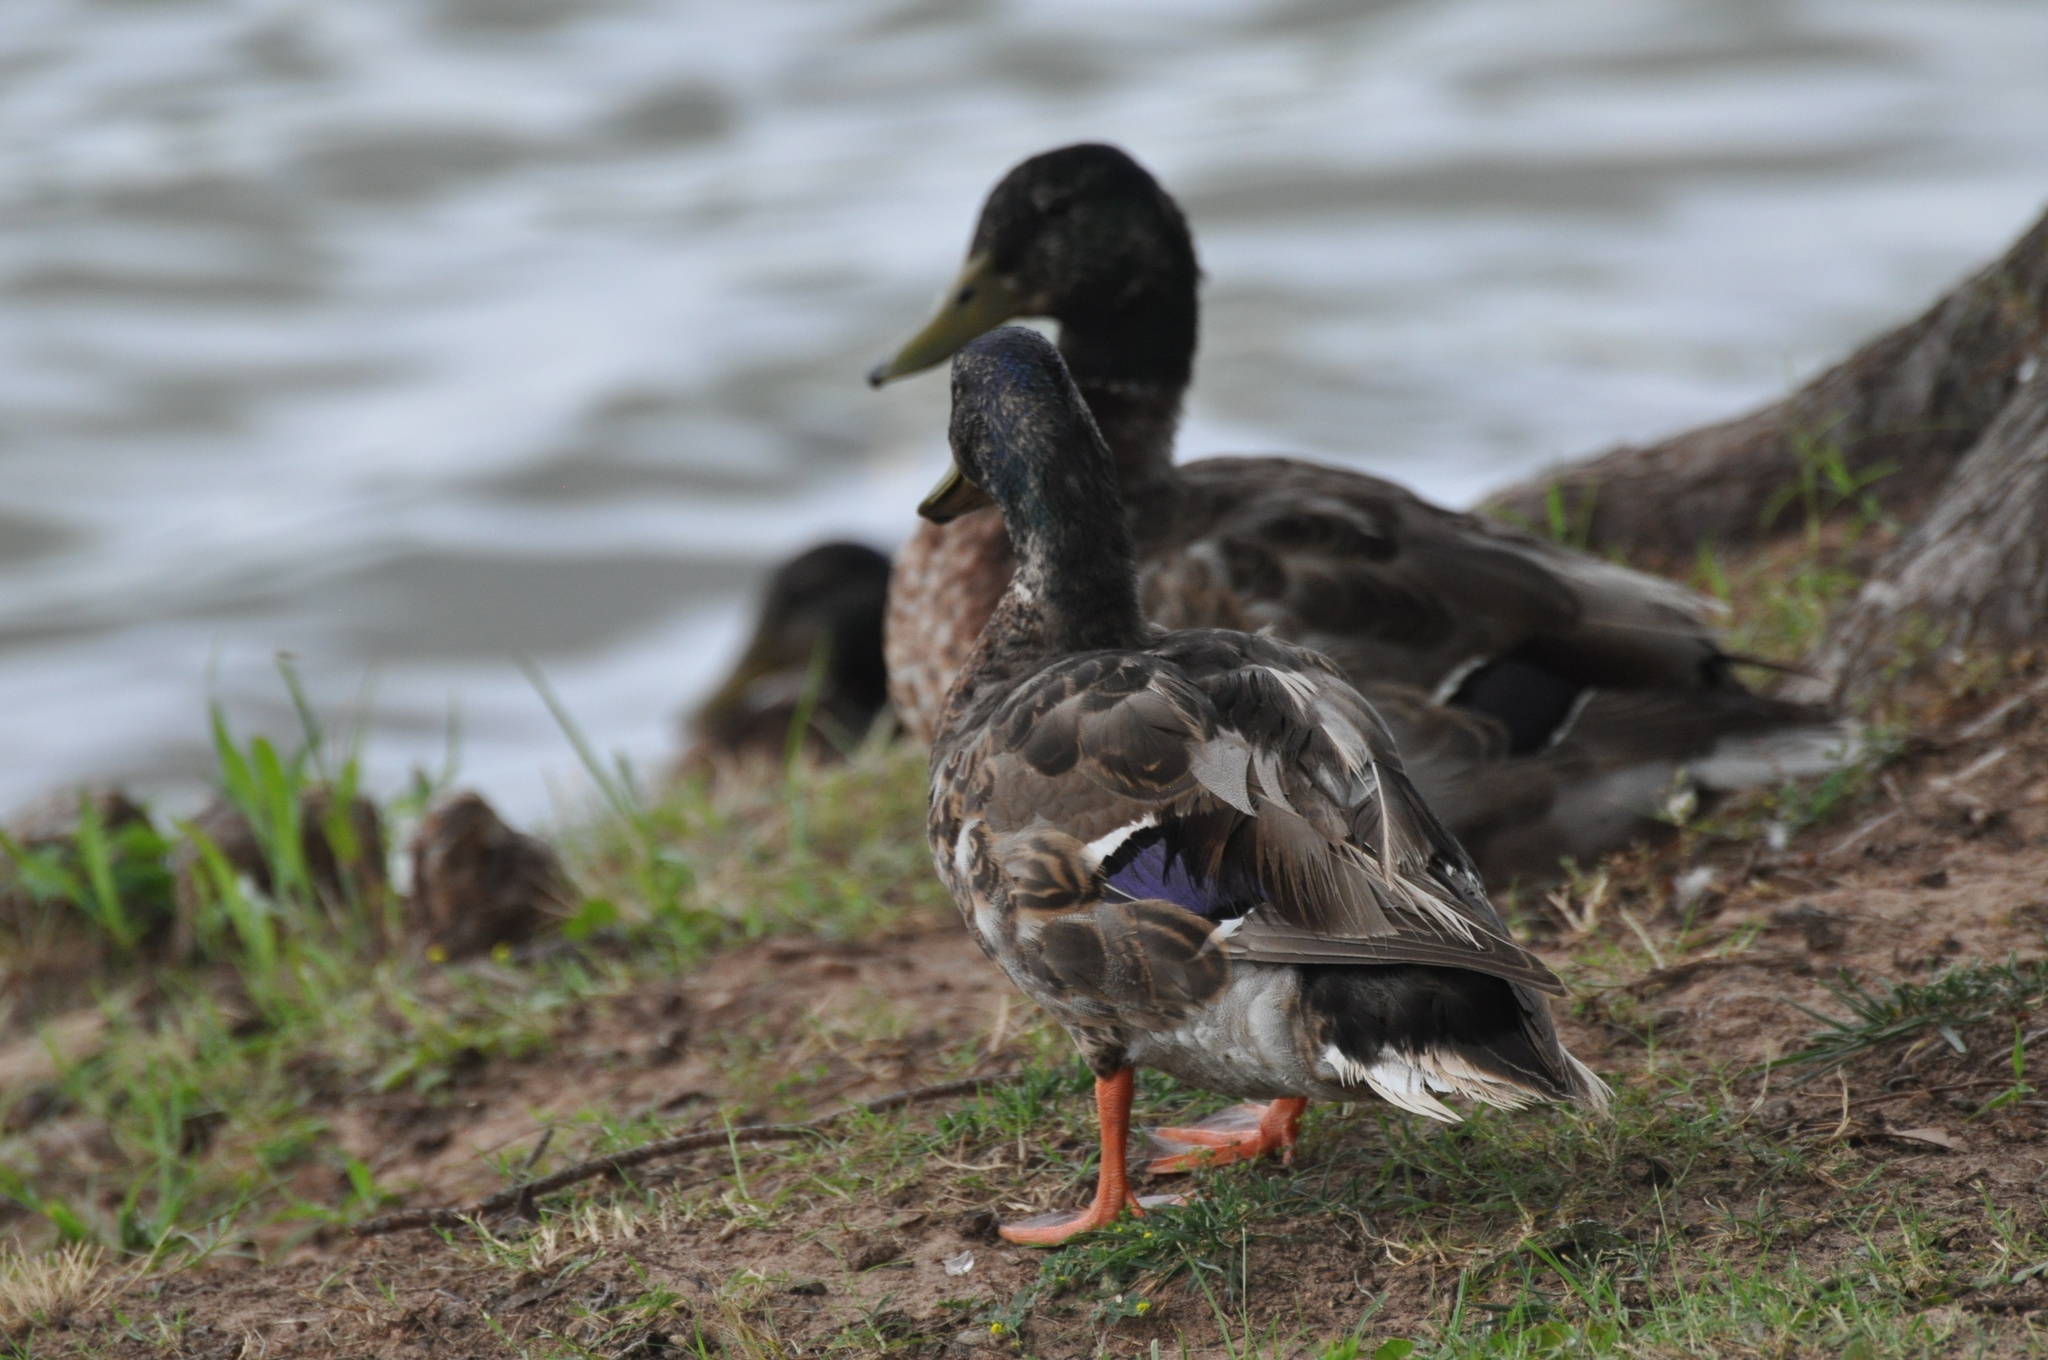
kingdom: Animalia
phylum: Chordata
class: Aves
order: Anseriformes
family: Anatidae
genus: Anas
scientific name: Anas platyrhynchos
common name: Mallard
